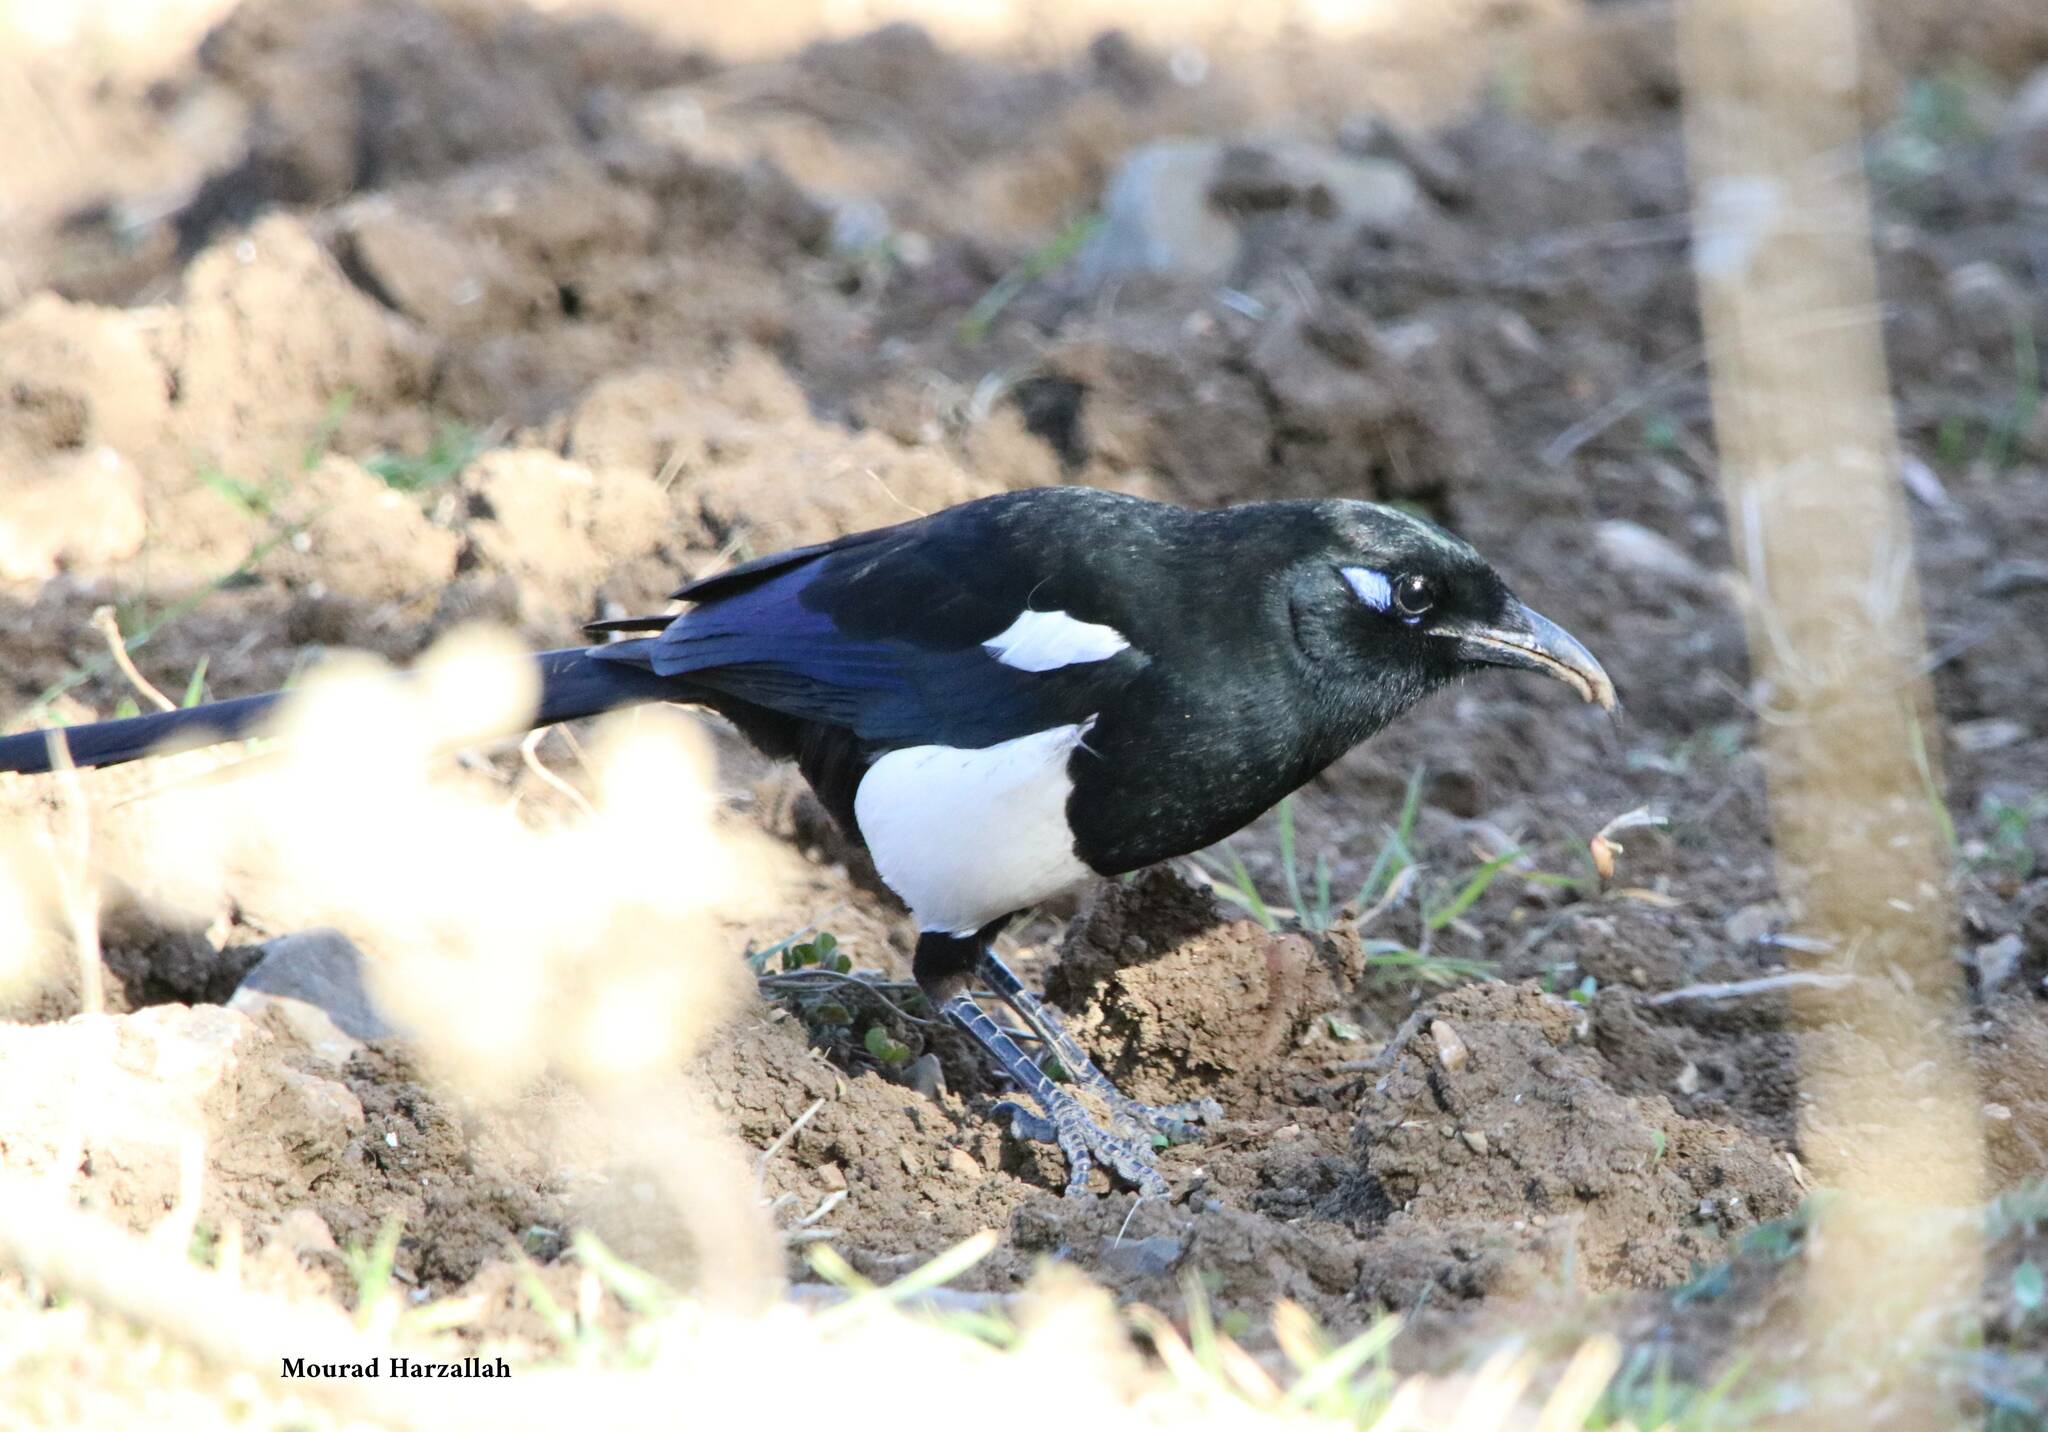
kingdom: Animalia
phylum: Chordata
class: Aves
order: Passeriformes
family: Corvidae
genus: Pica
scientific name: Pica mauritanica
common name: Maghreb magpie
